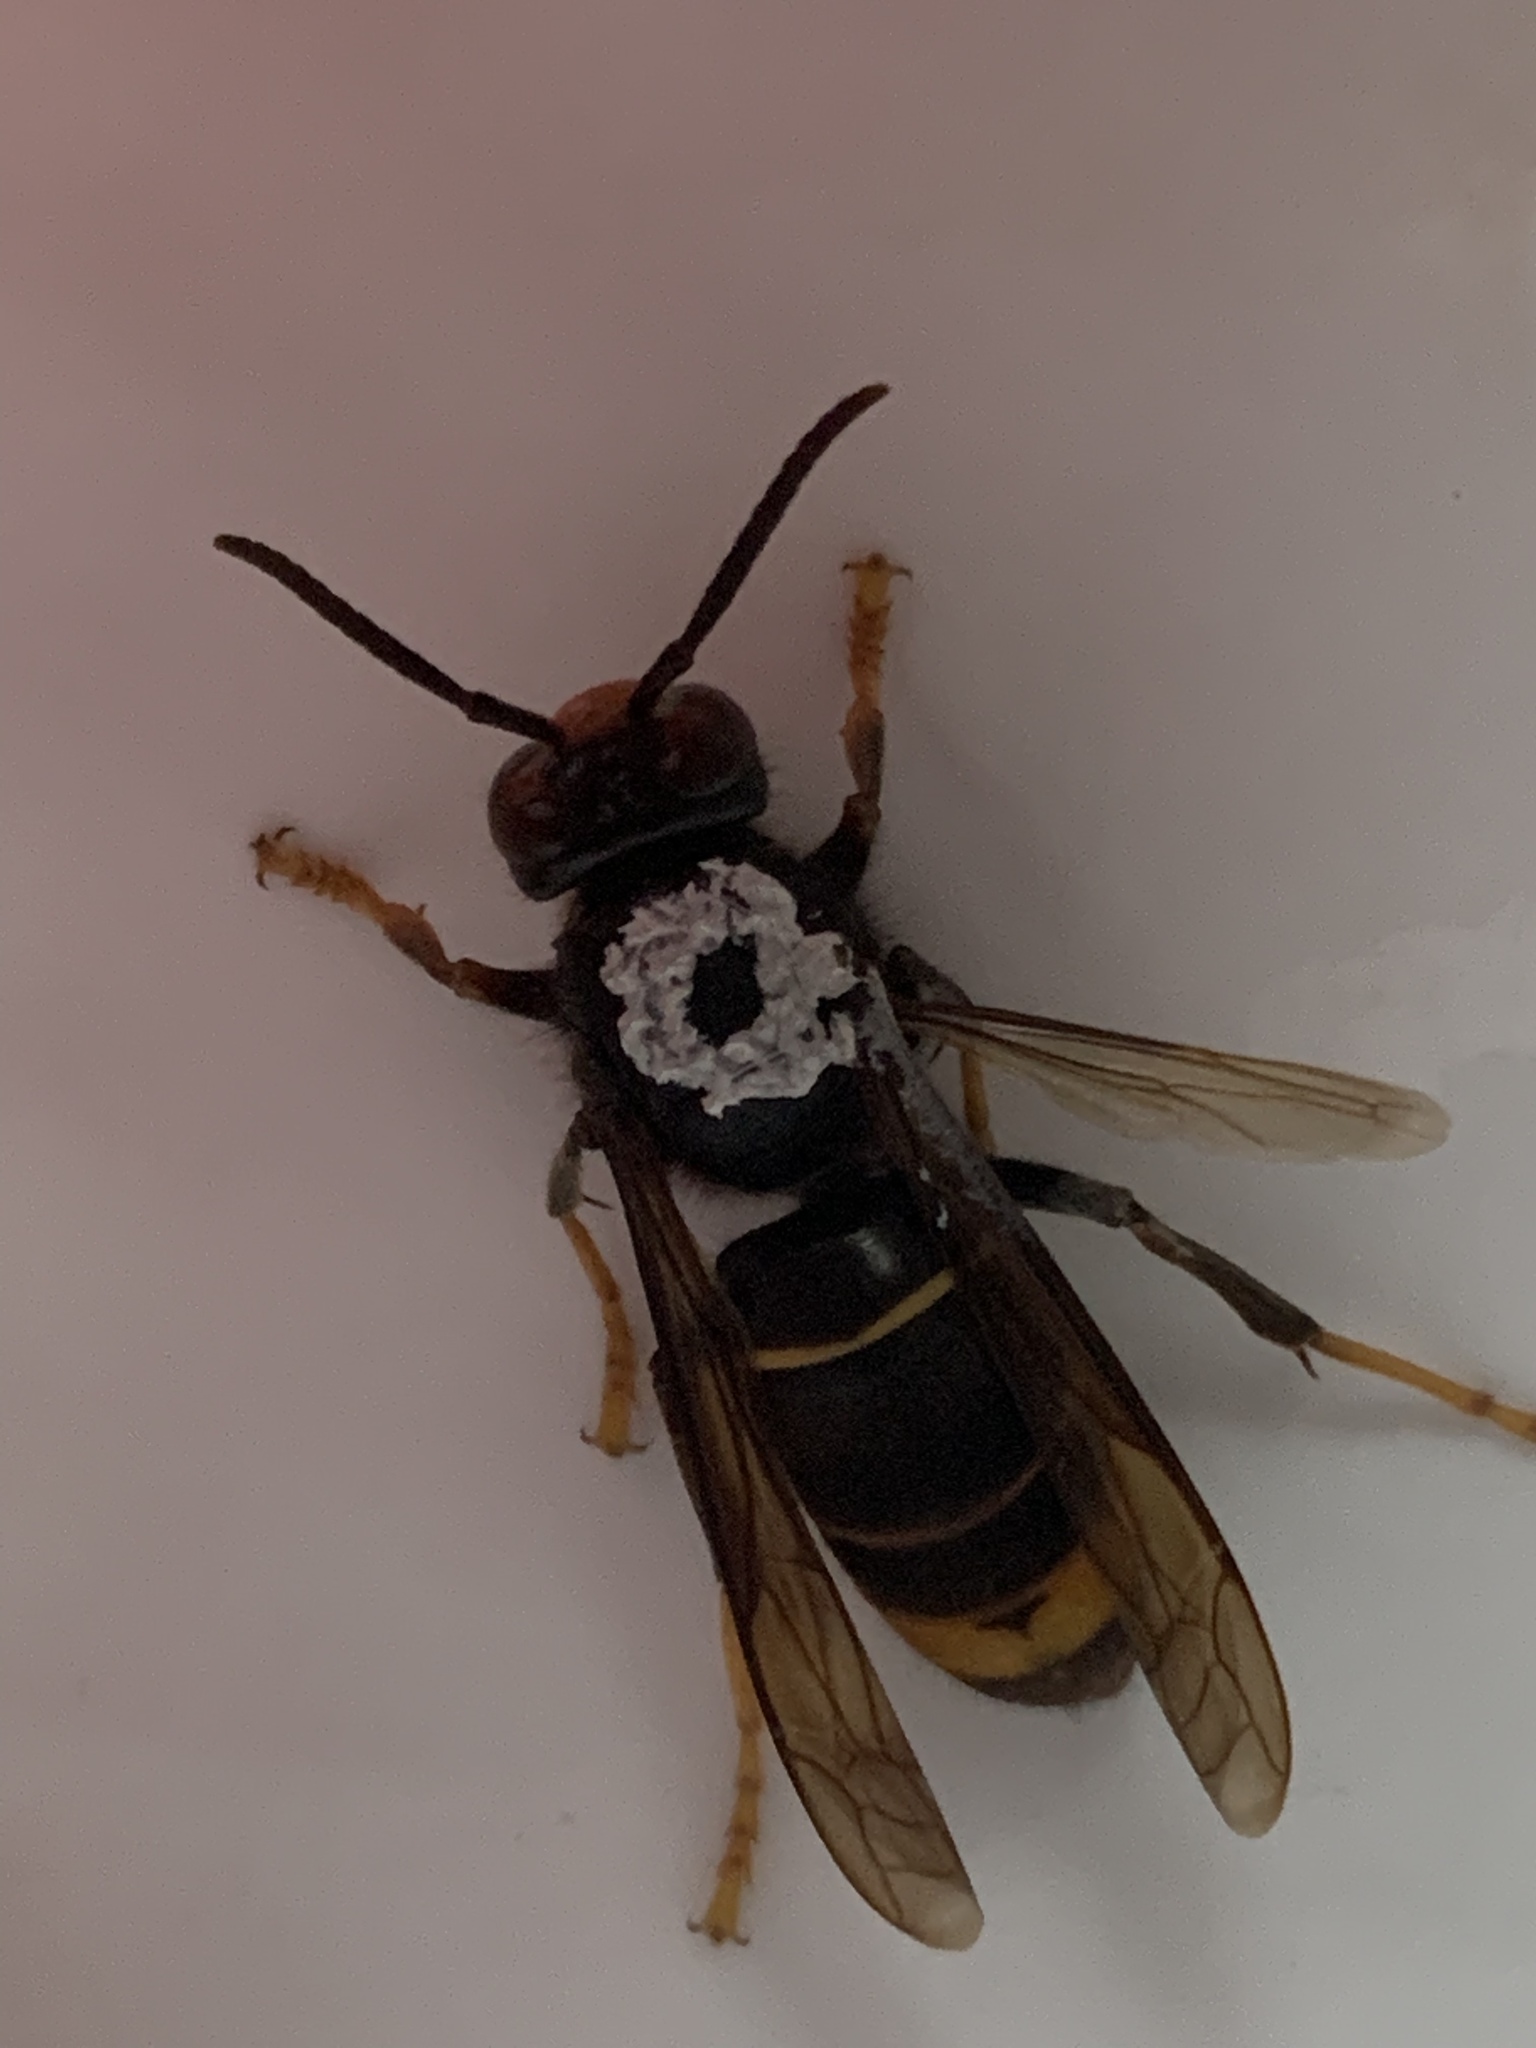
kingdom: Animalia
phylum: Arthropoda
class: Insecta
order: Hymenoptera
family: Vespidae
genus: Vespa
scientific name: Vespa velutina
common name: Asian hornet
